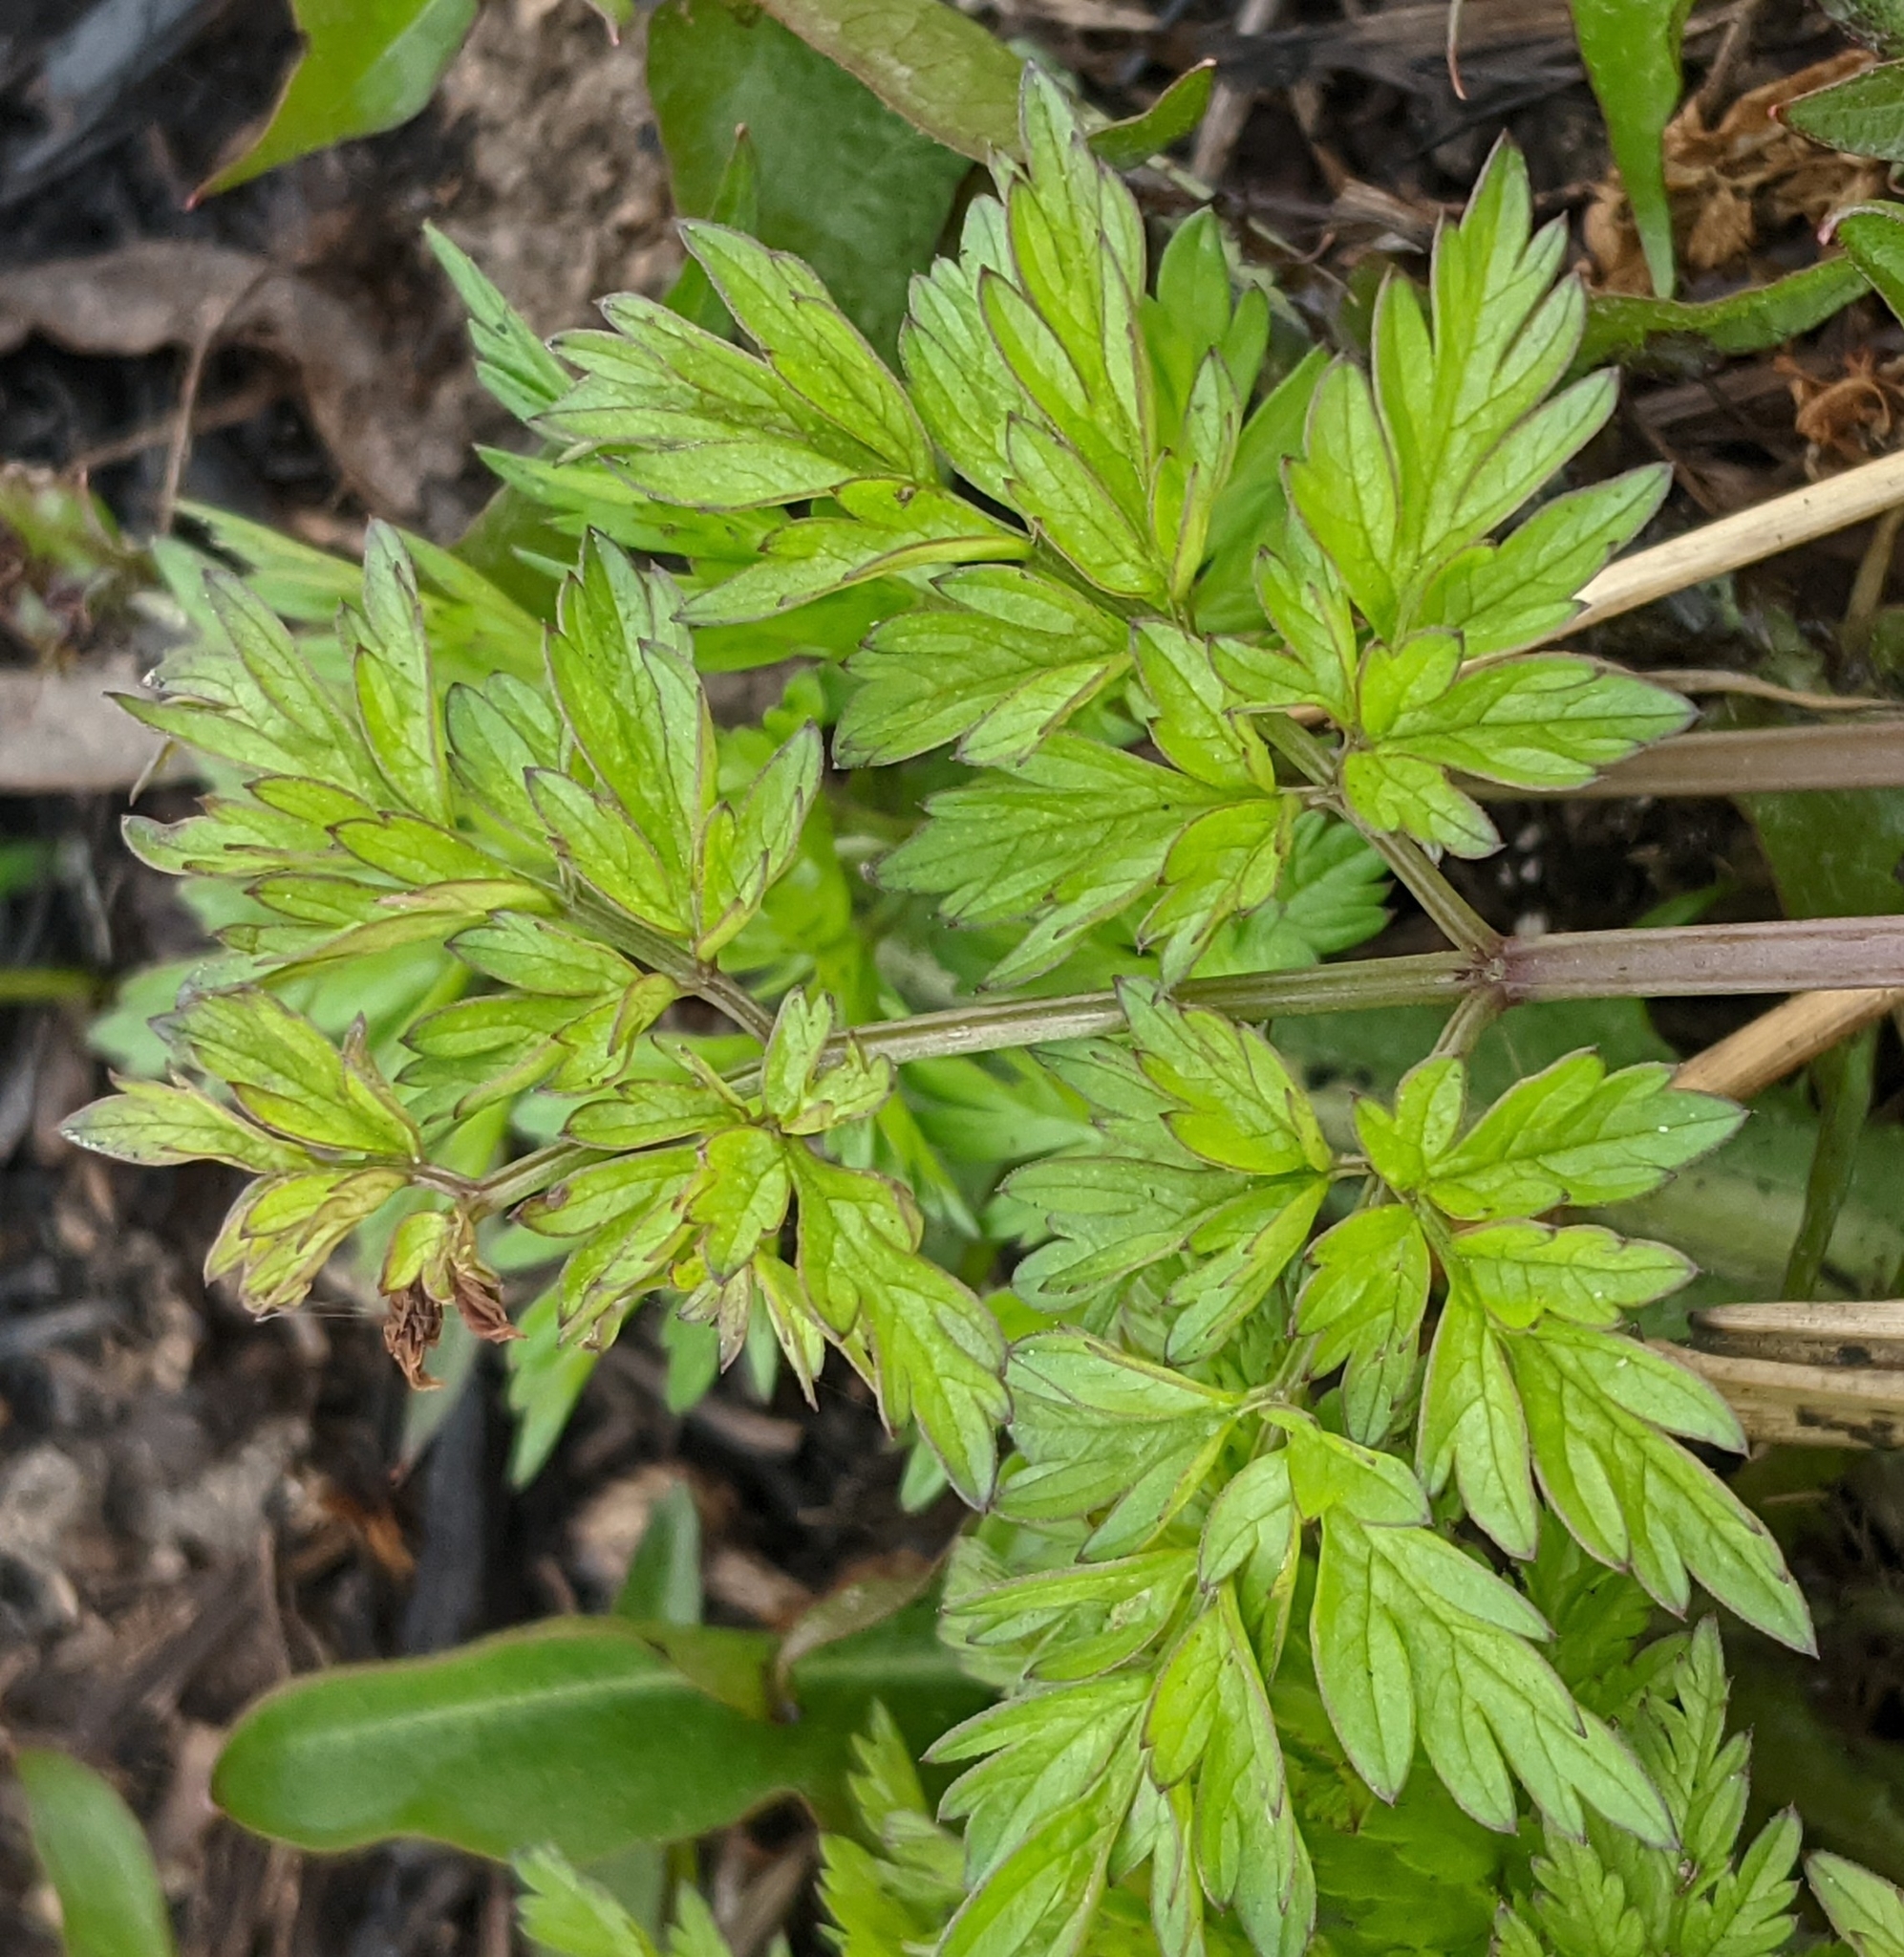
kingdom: Plantae
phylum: Tracheophyta
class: Magnoliopsida
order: Apiales
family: Apiaceae
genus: Anthriscus
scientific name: Anthriscus sylvestris
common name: Cow parsley
